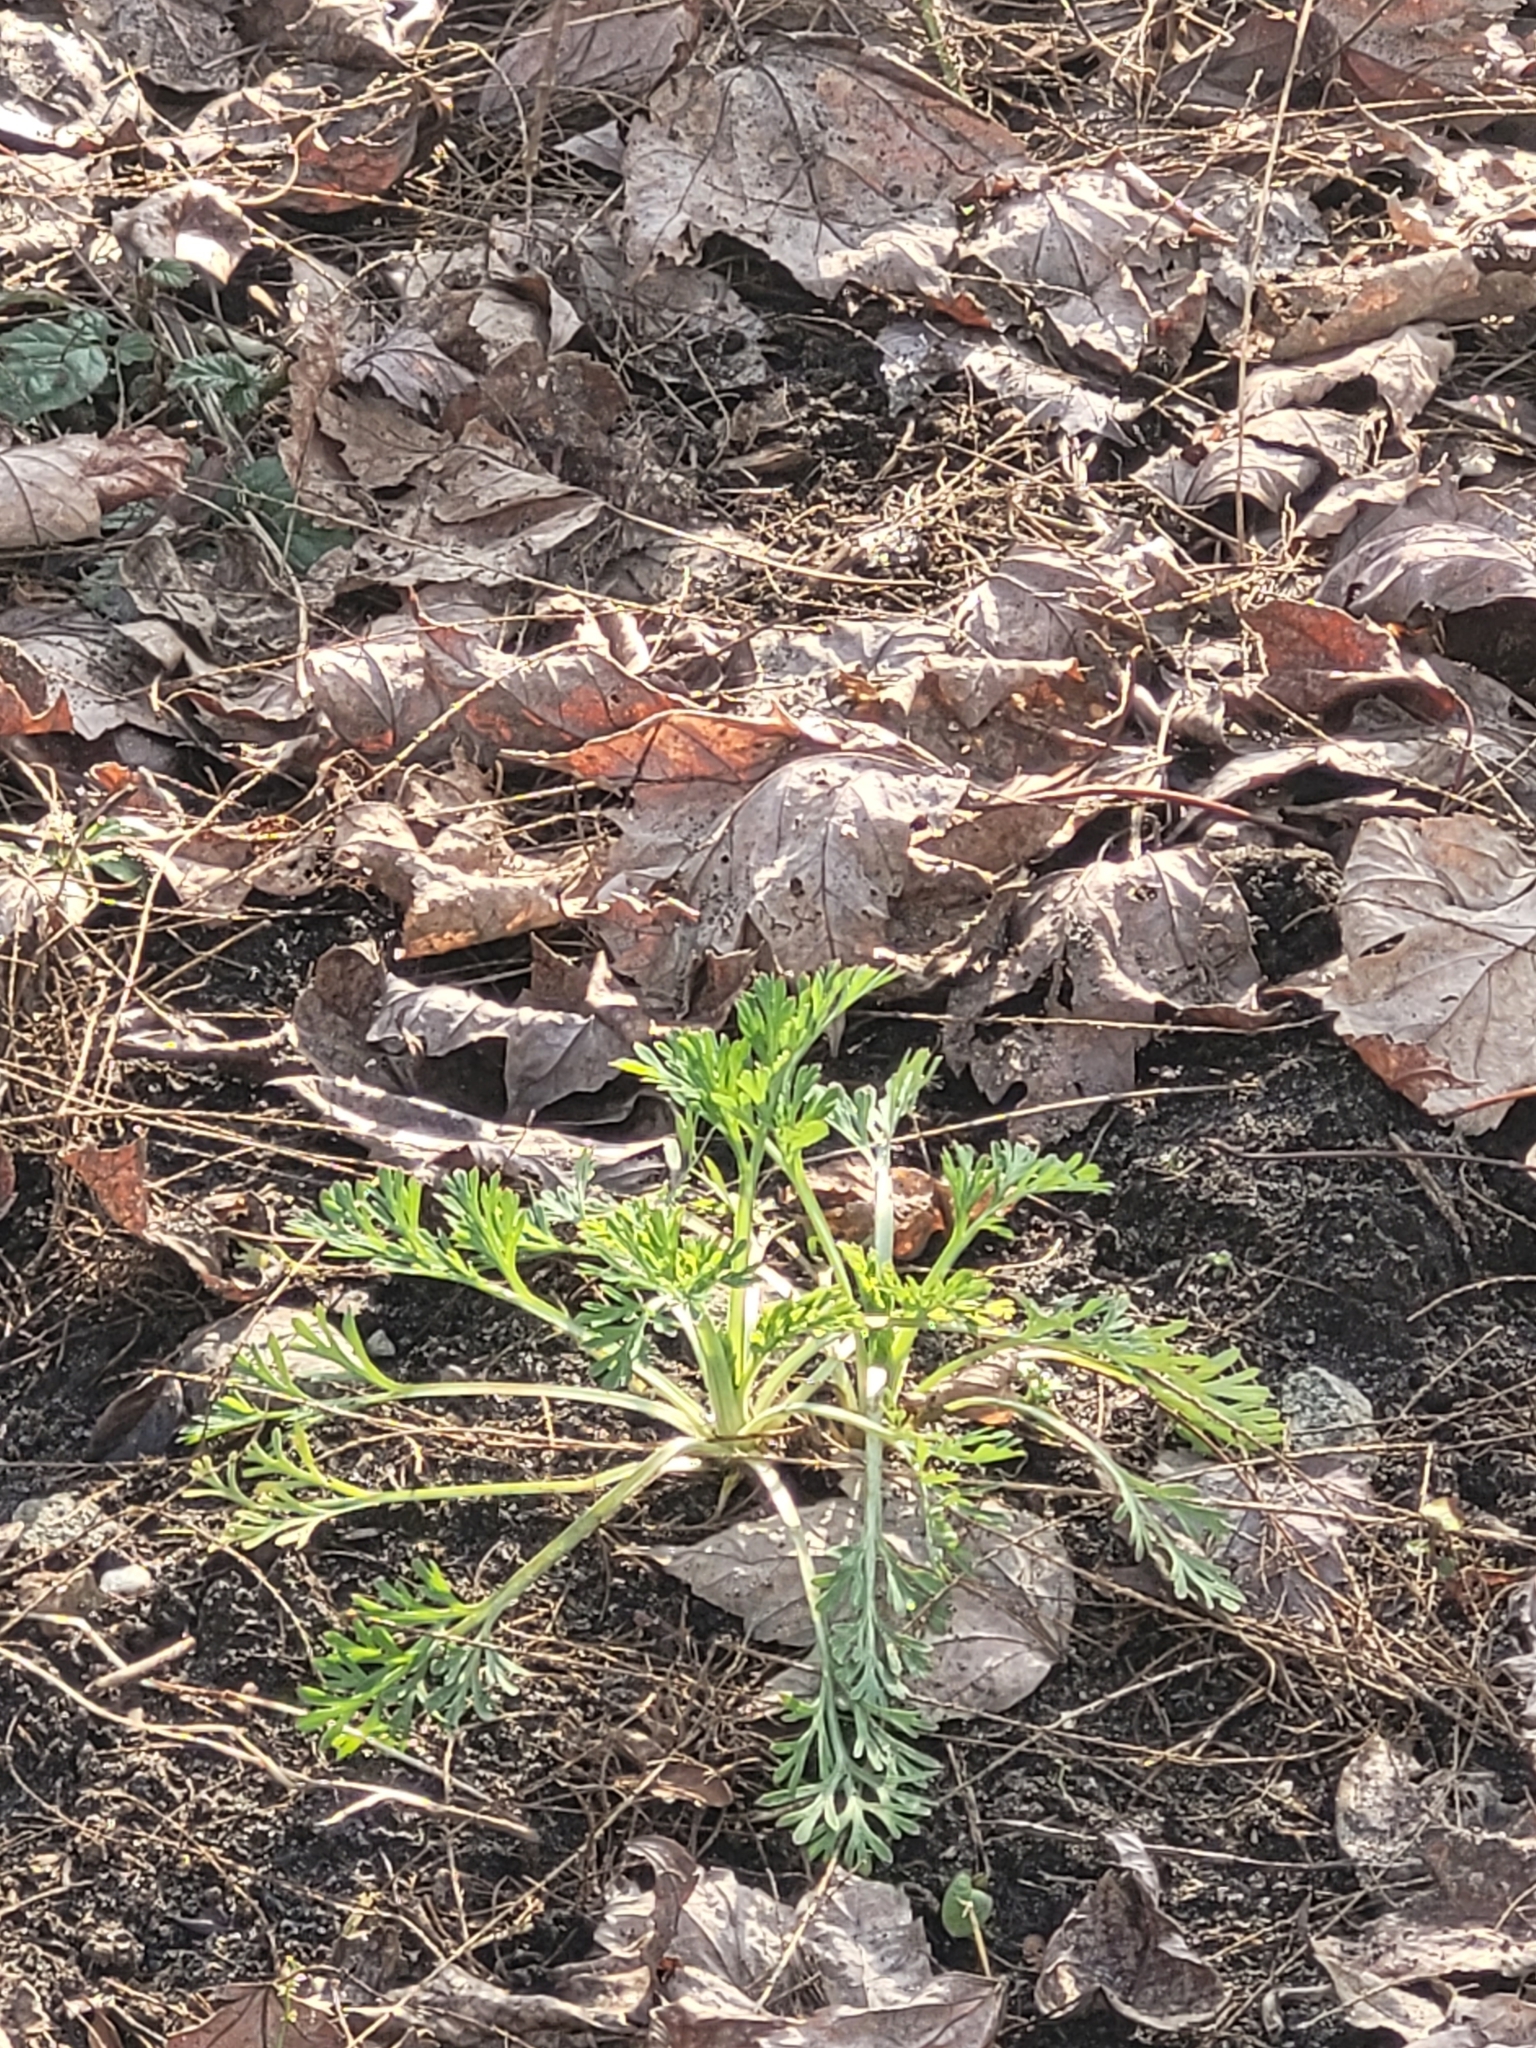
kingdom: Plantae
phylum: Tracheophyta
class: Magnoliopsida
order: Ranunculales
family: Papaveraceae
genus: Eschscholzia
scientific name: Eschscholzia californica
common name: California poppy
